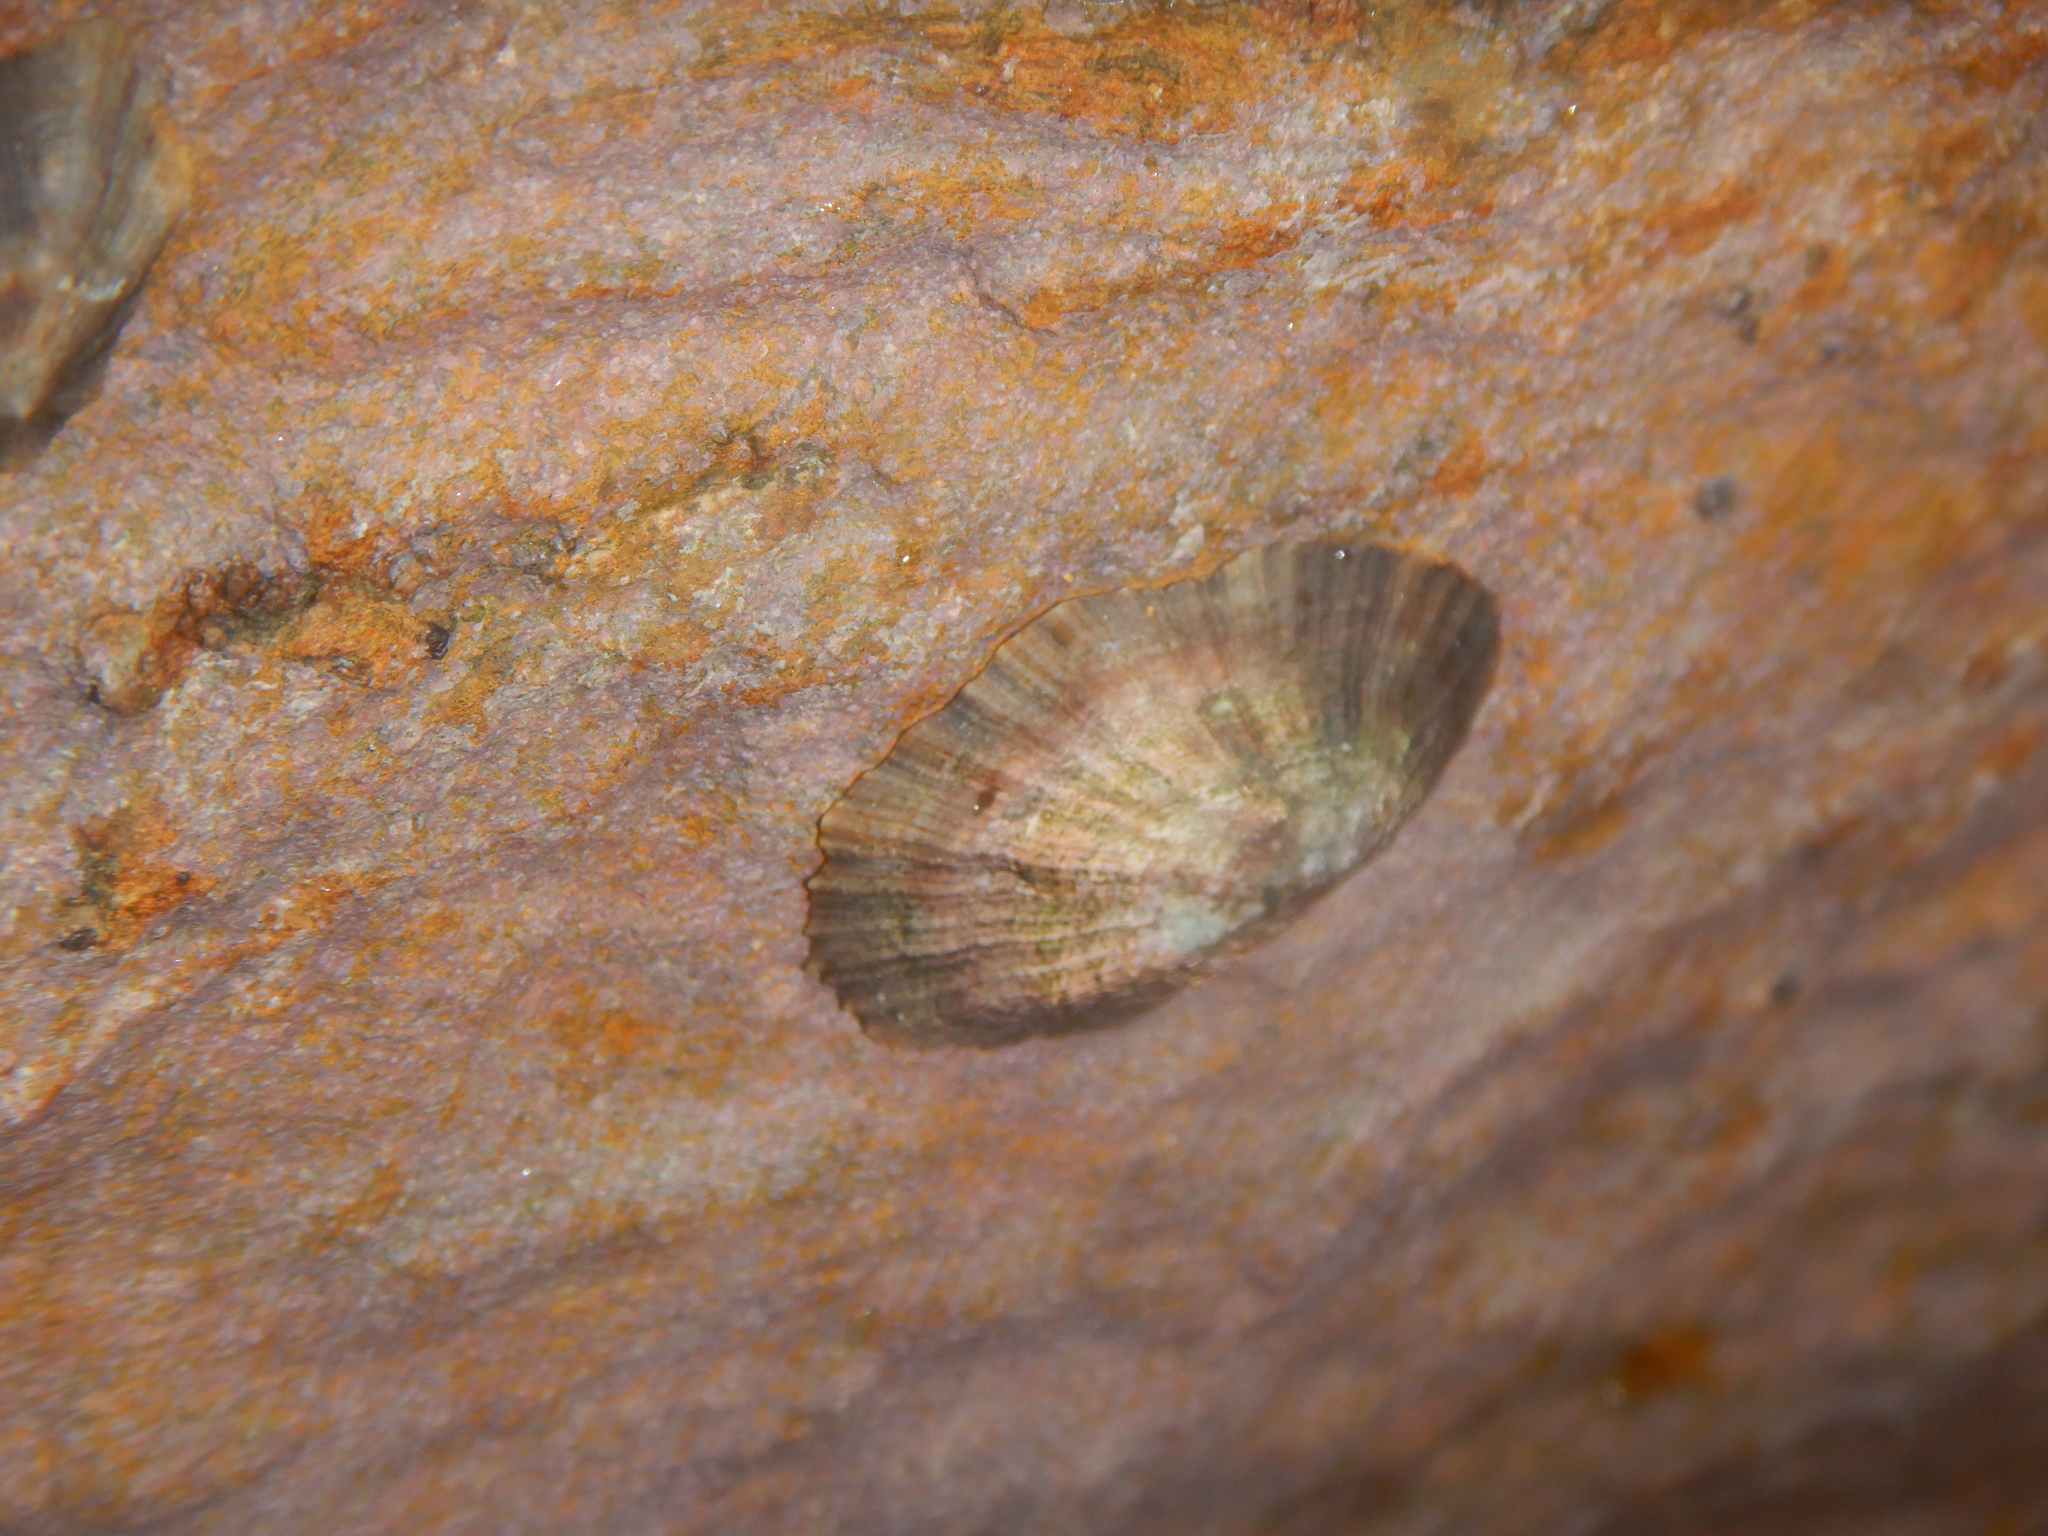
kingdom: Animalia
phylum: Mollusca
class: Gastropoda
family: Patellidae
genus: Patella
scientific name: Patella caerulea
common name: Mediterranean limpet
